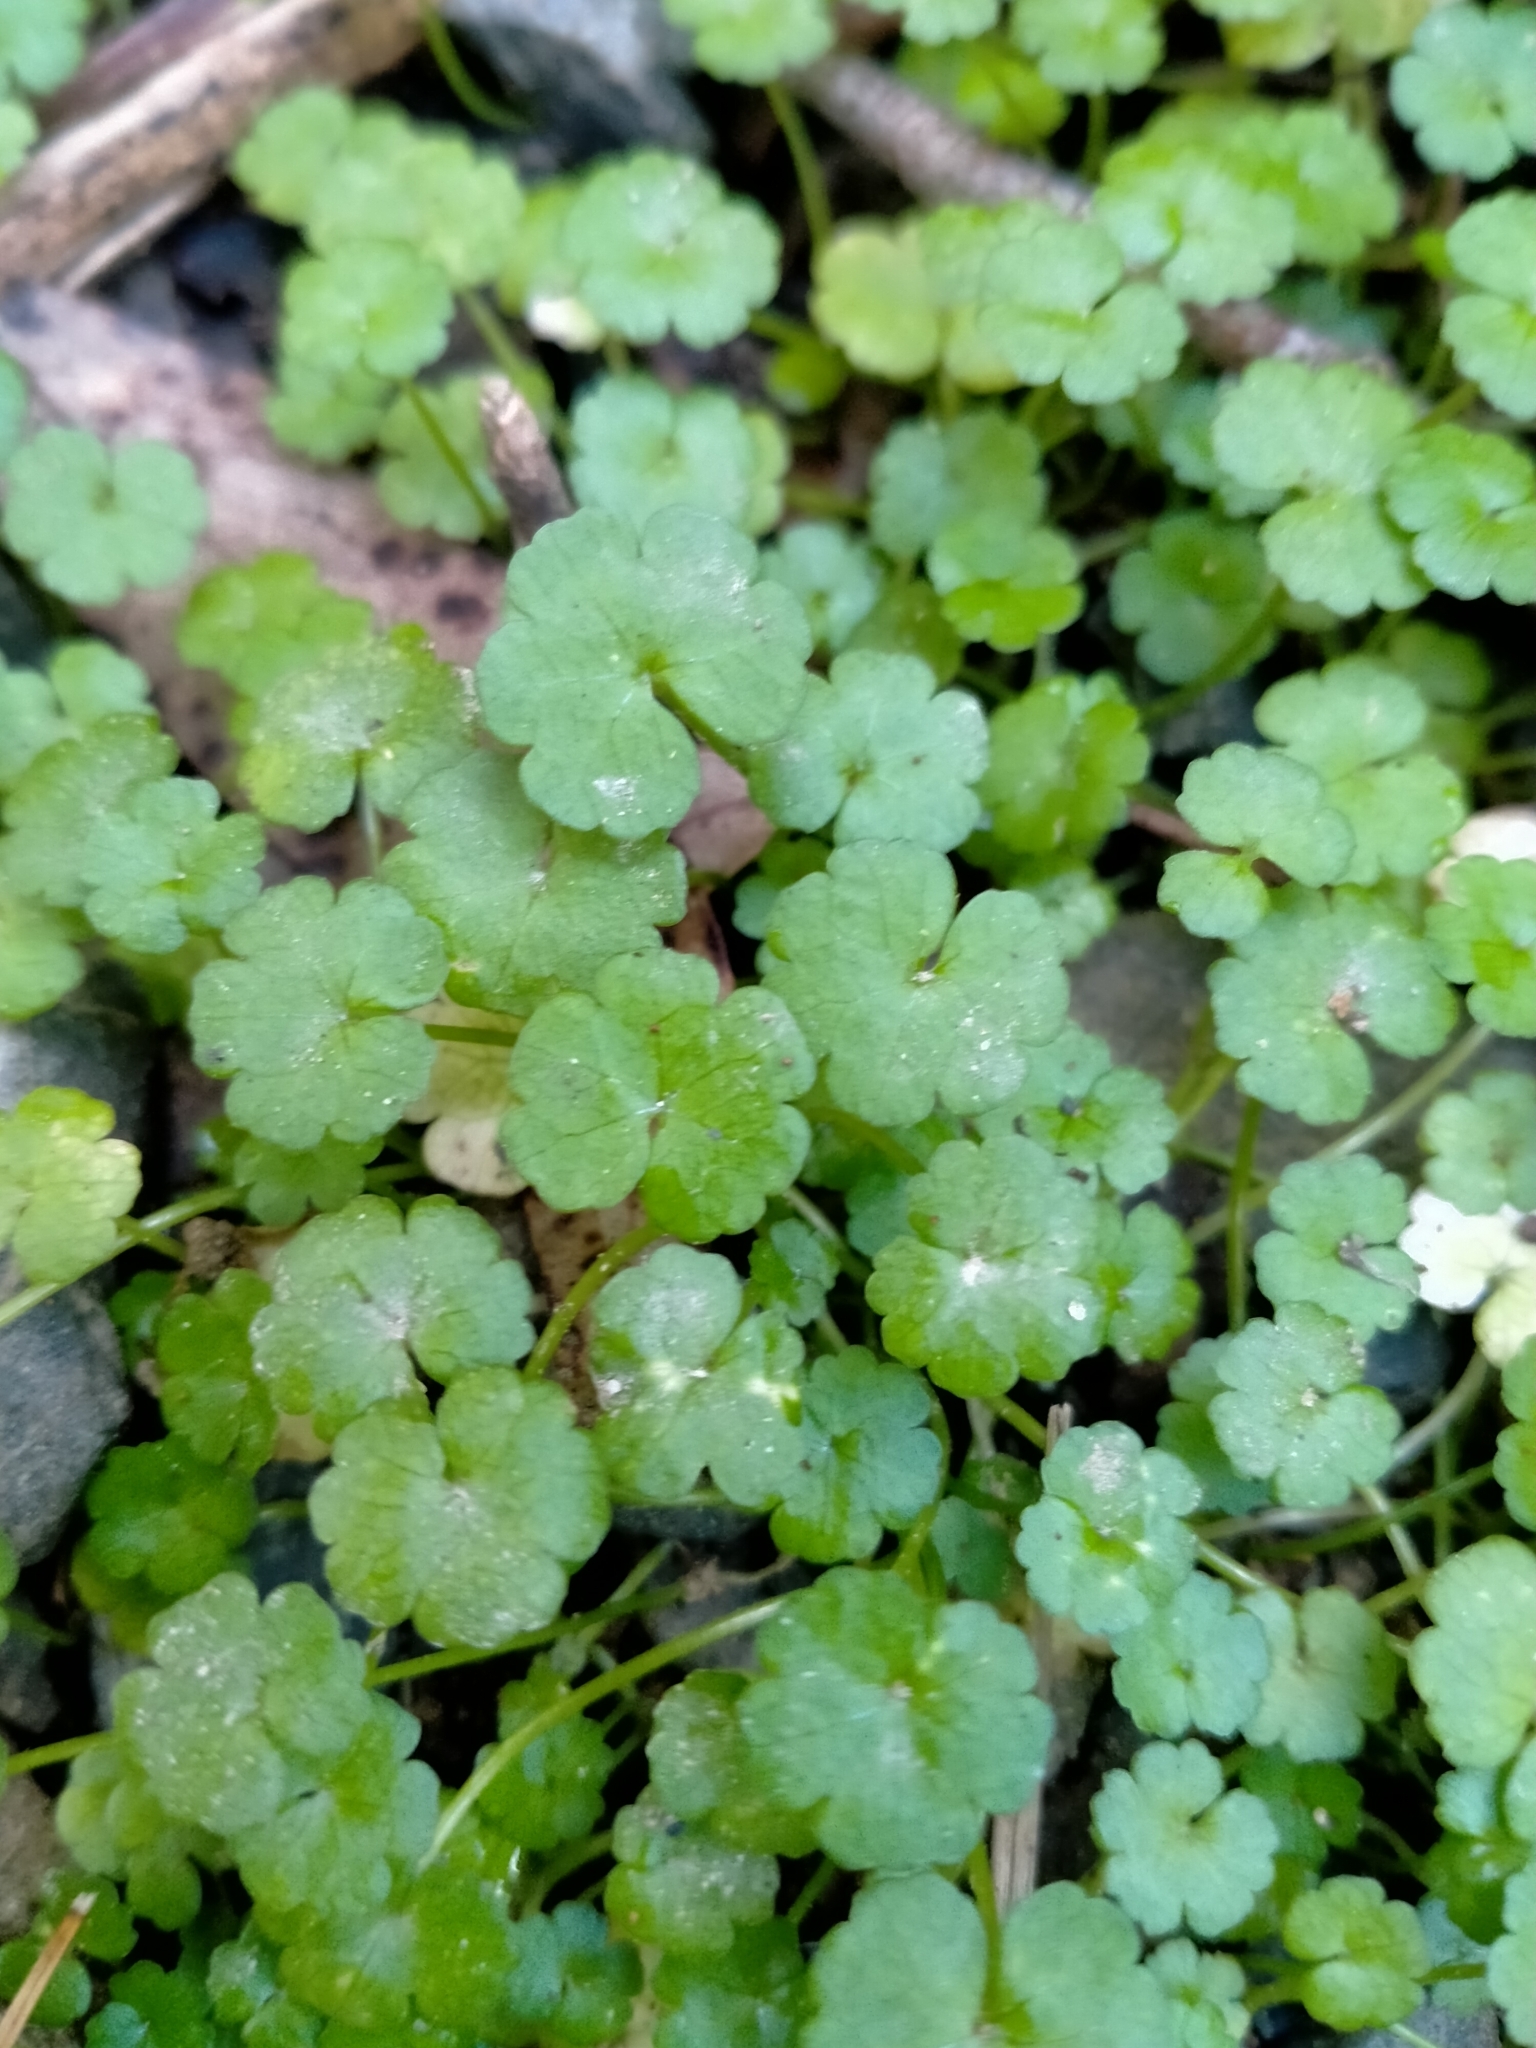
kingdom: Plantae
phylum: Tracheophyta
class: Magnoliopsida
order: Apiales
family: Araliaceae
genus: Hydrocotyle
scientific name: Hydrocotyle heteromeria
